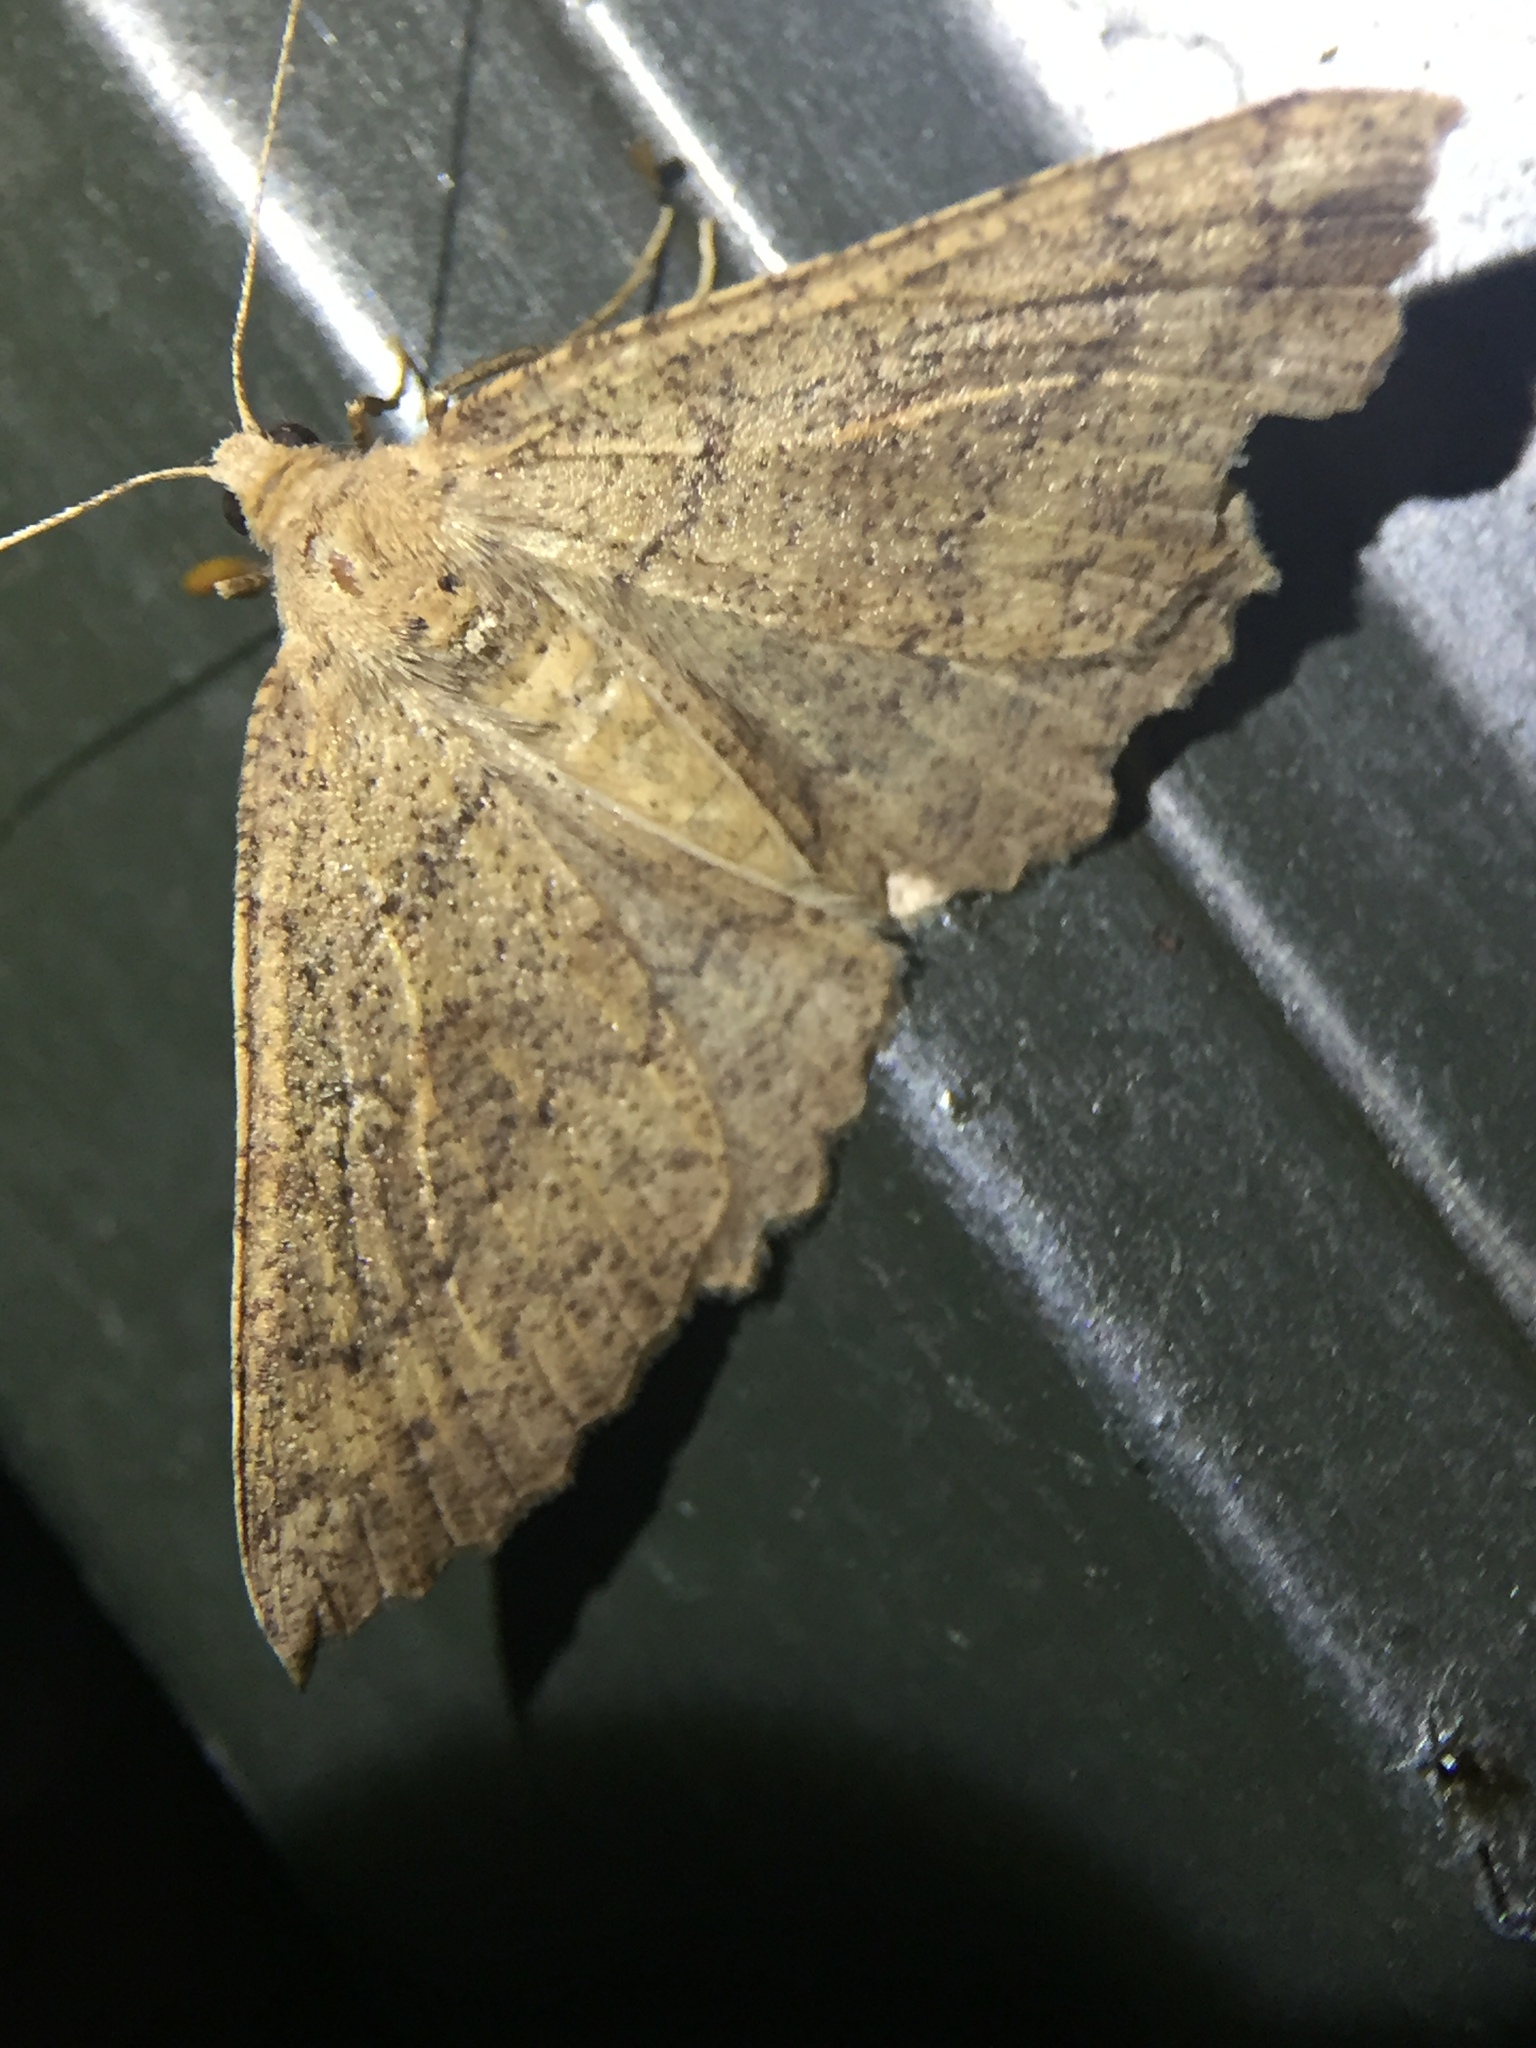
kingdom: Animalia
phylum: Arthropoda
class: Insecta
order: Lepidoptera
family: Geometridae
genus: Cleora
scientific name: Cleora scriptaria
